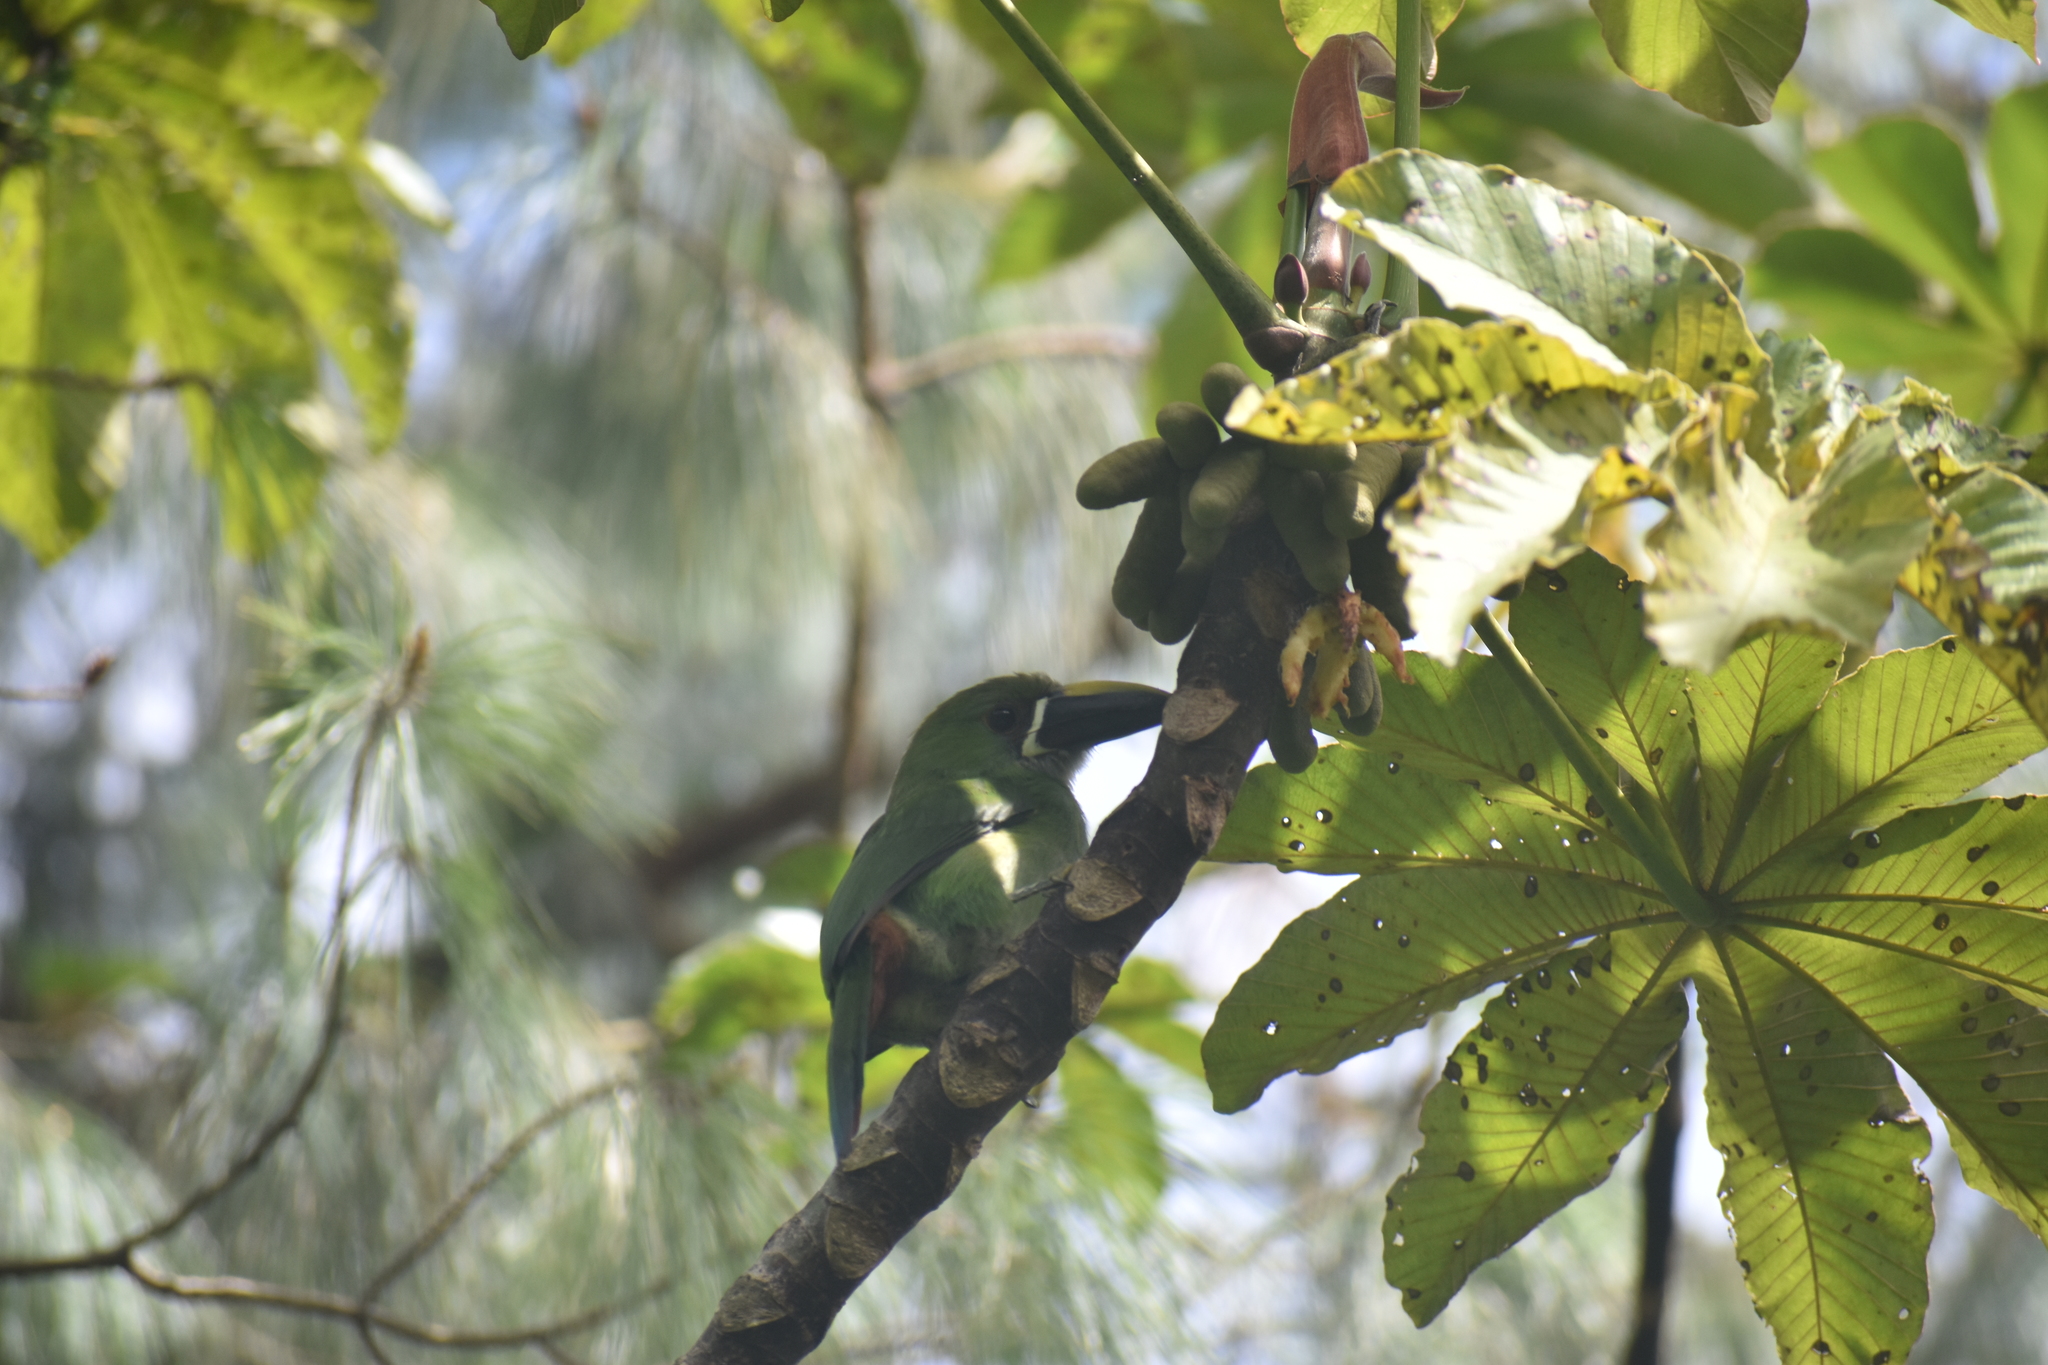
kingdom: Animalia
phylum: Chordata
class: Aves
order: Piciformes
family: Ramphastidae
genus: Aulacorhynchus
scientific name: Aulacorhynchus albivitta
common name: White-throated toucanet
